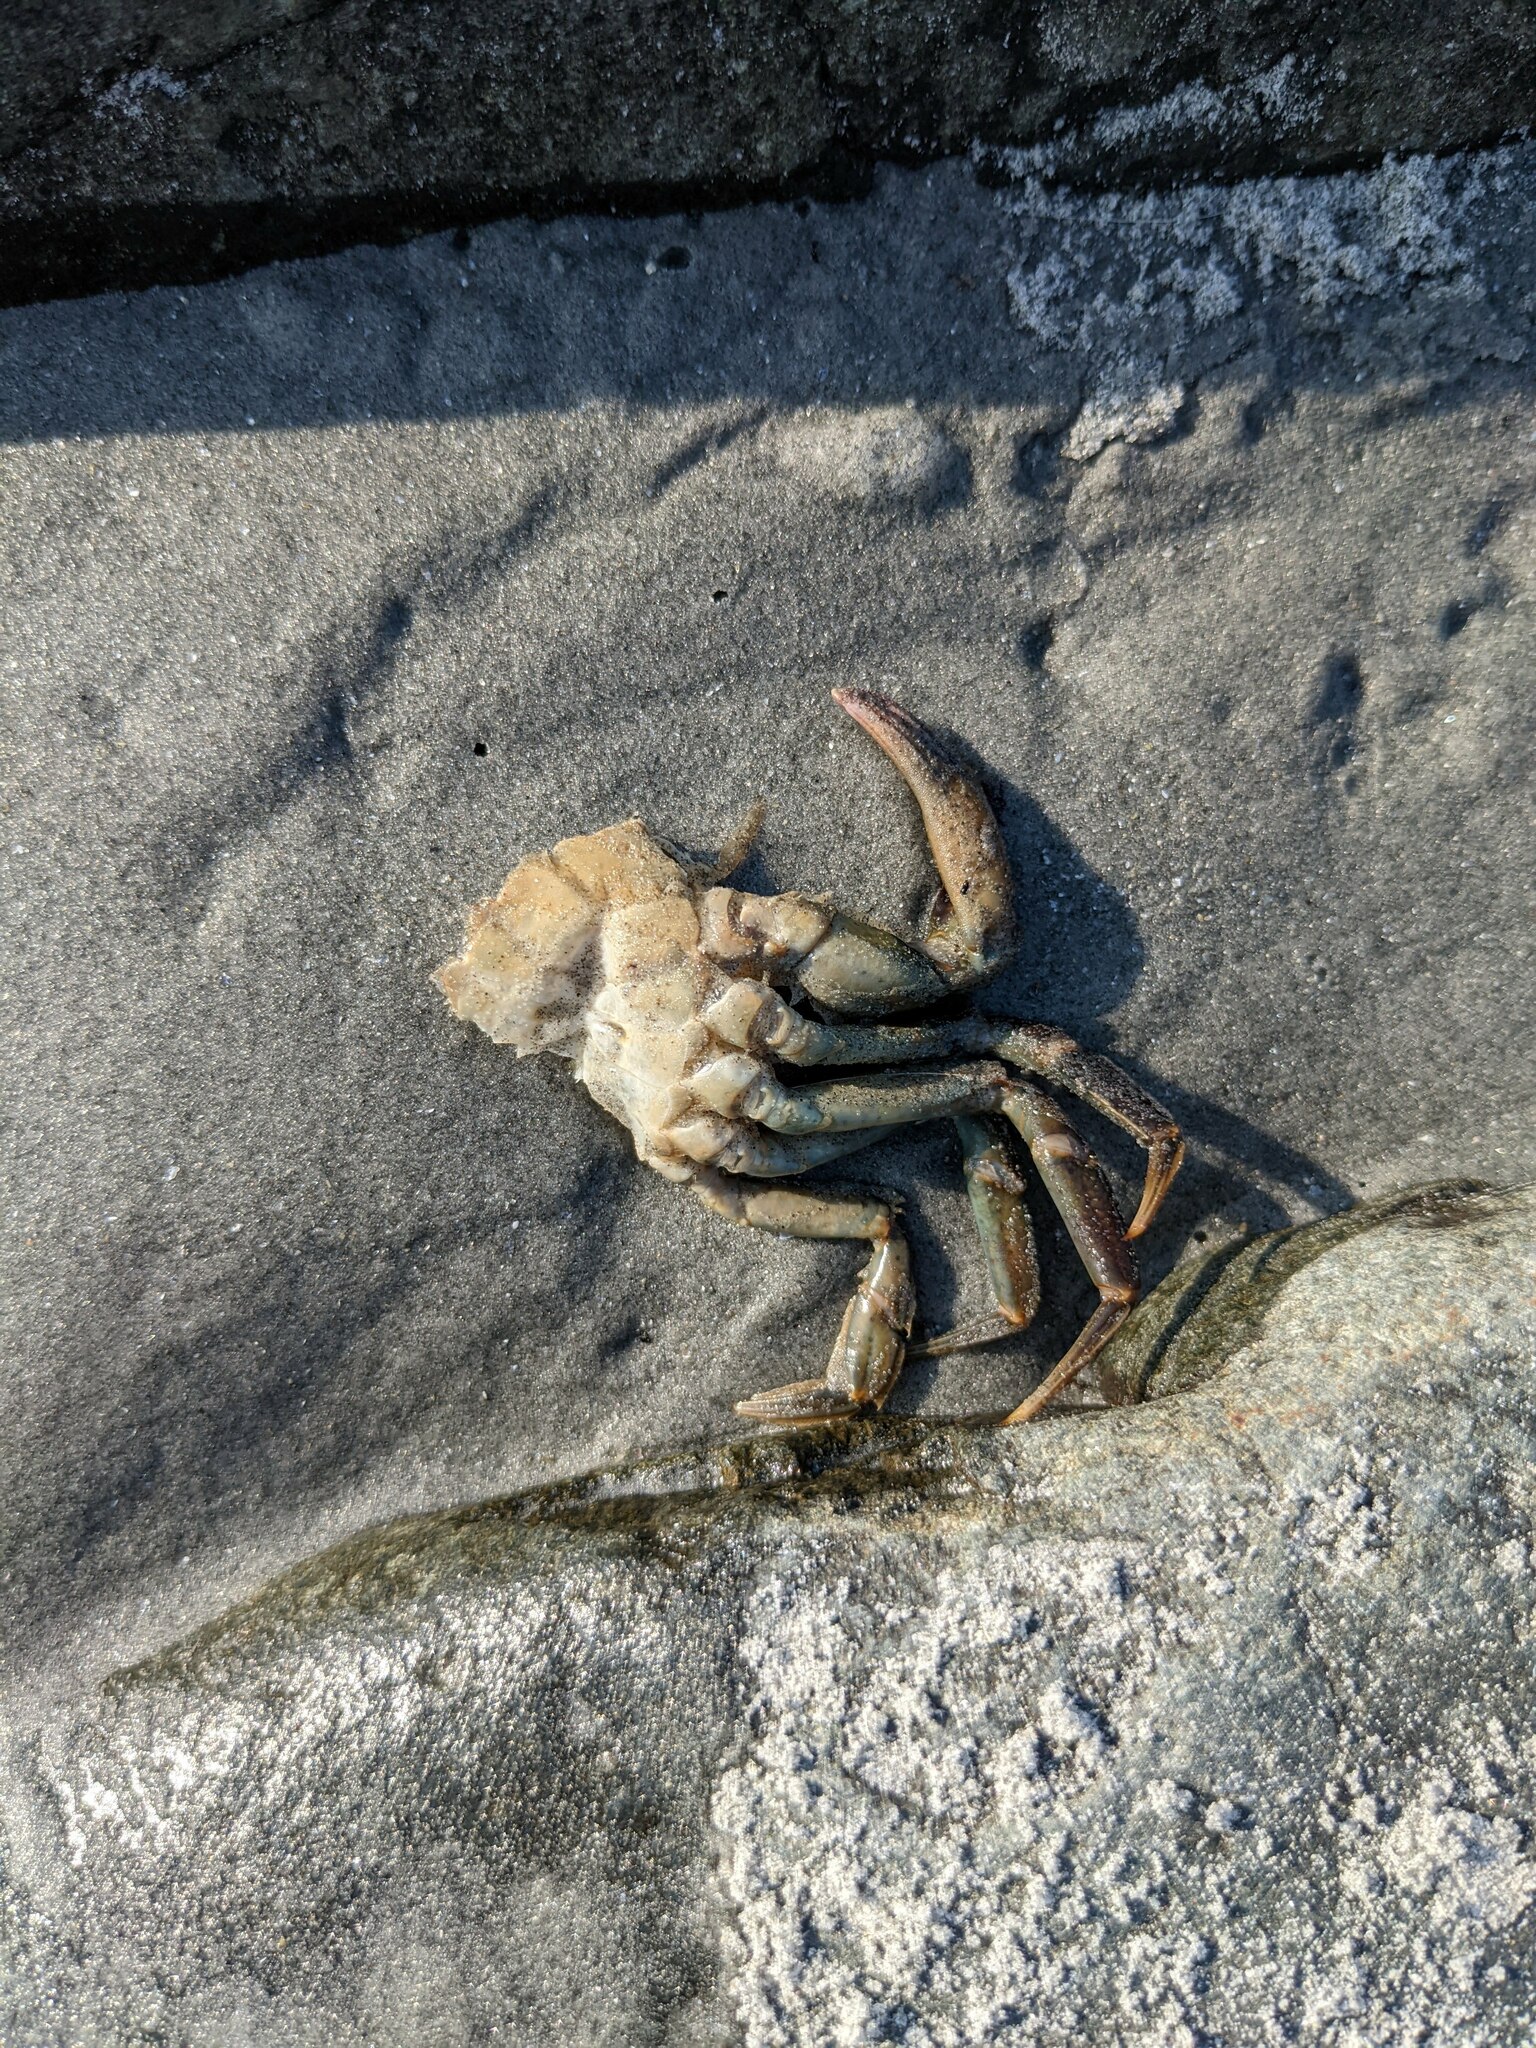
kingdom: Animalia
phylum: Arthropoda
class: Malacostraca
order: Decapoda
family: Carcinidae
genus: Carcinus
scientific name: Carcinus maenas
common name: European green crab
